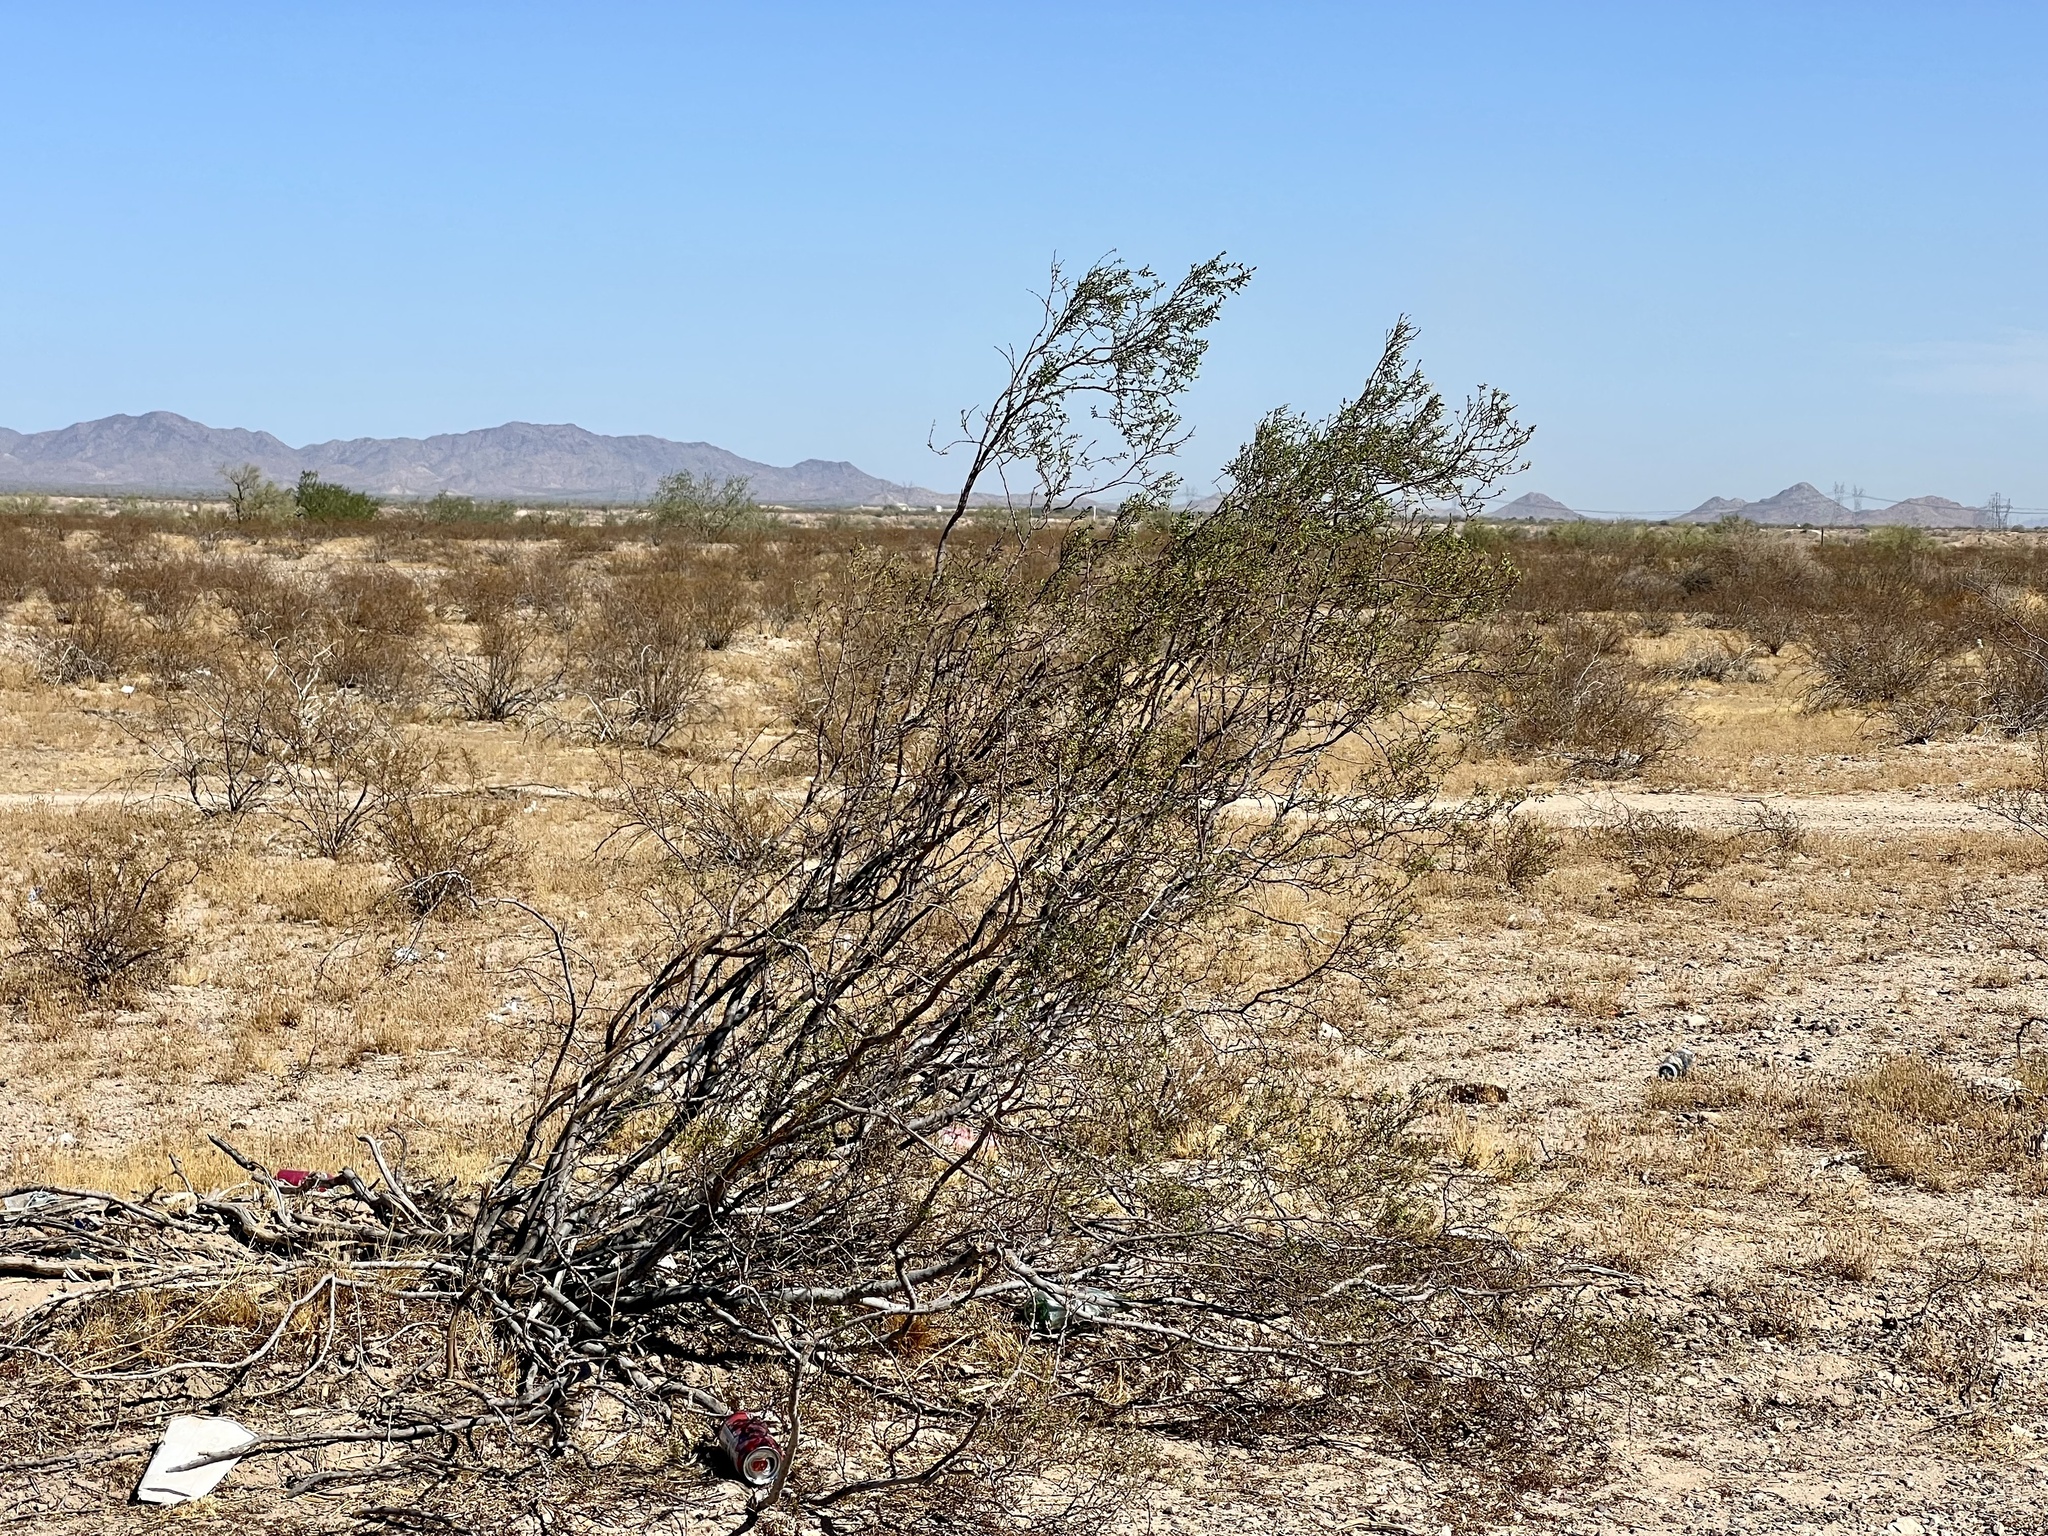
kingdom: Plantae
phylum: Tracheophyta
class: Magnoliopsida
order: Zygophyllales
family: Zygophyllaceae
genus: Larrea
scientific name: Larrea tridentata
